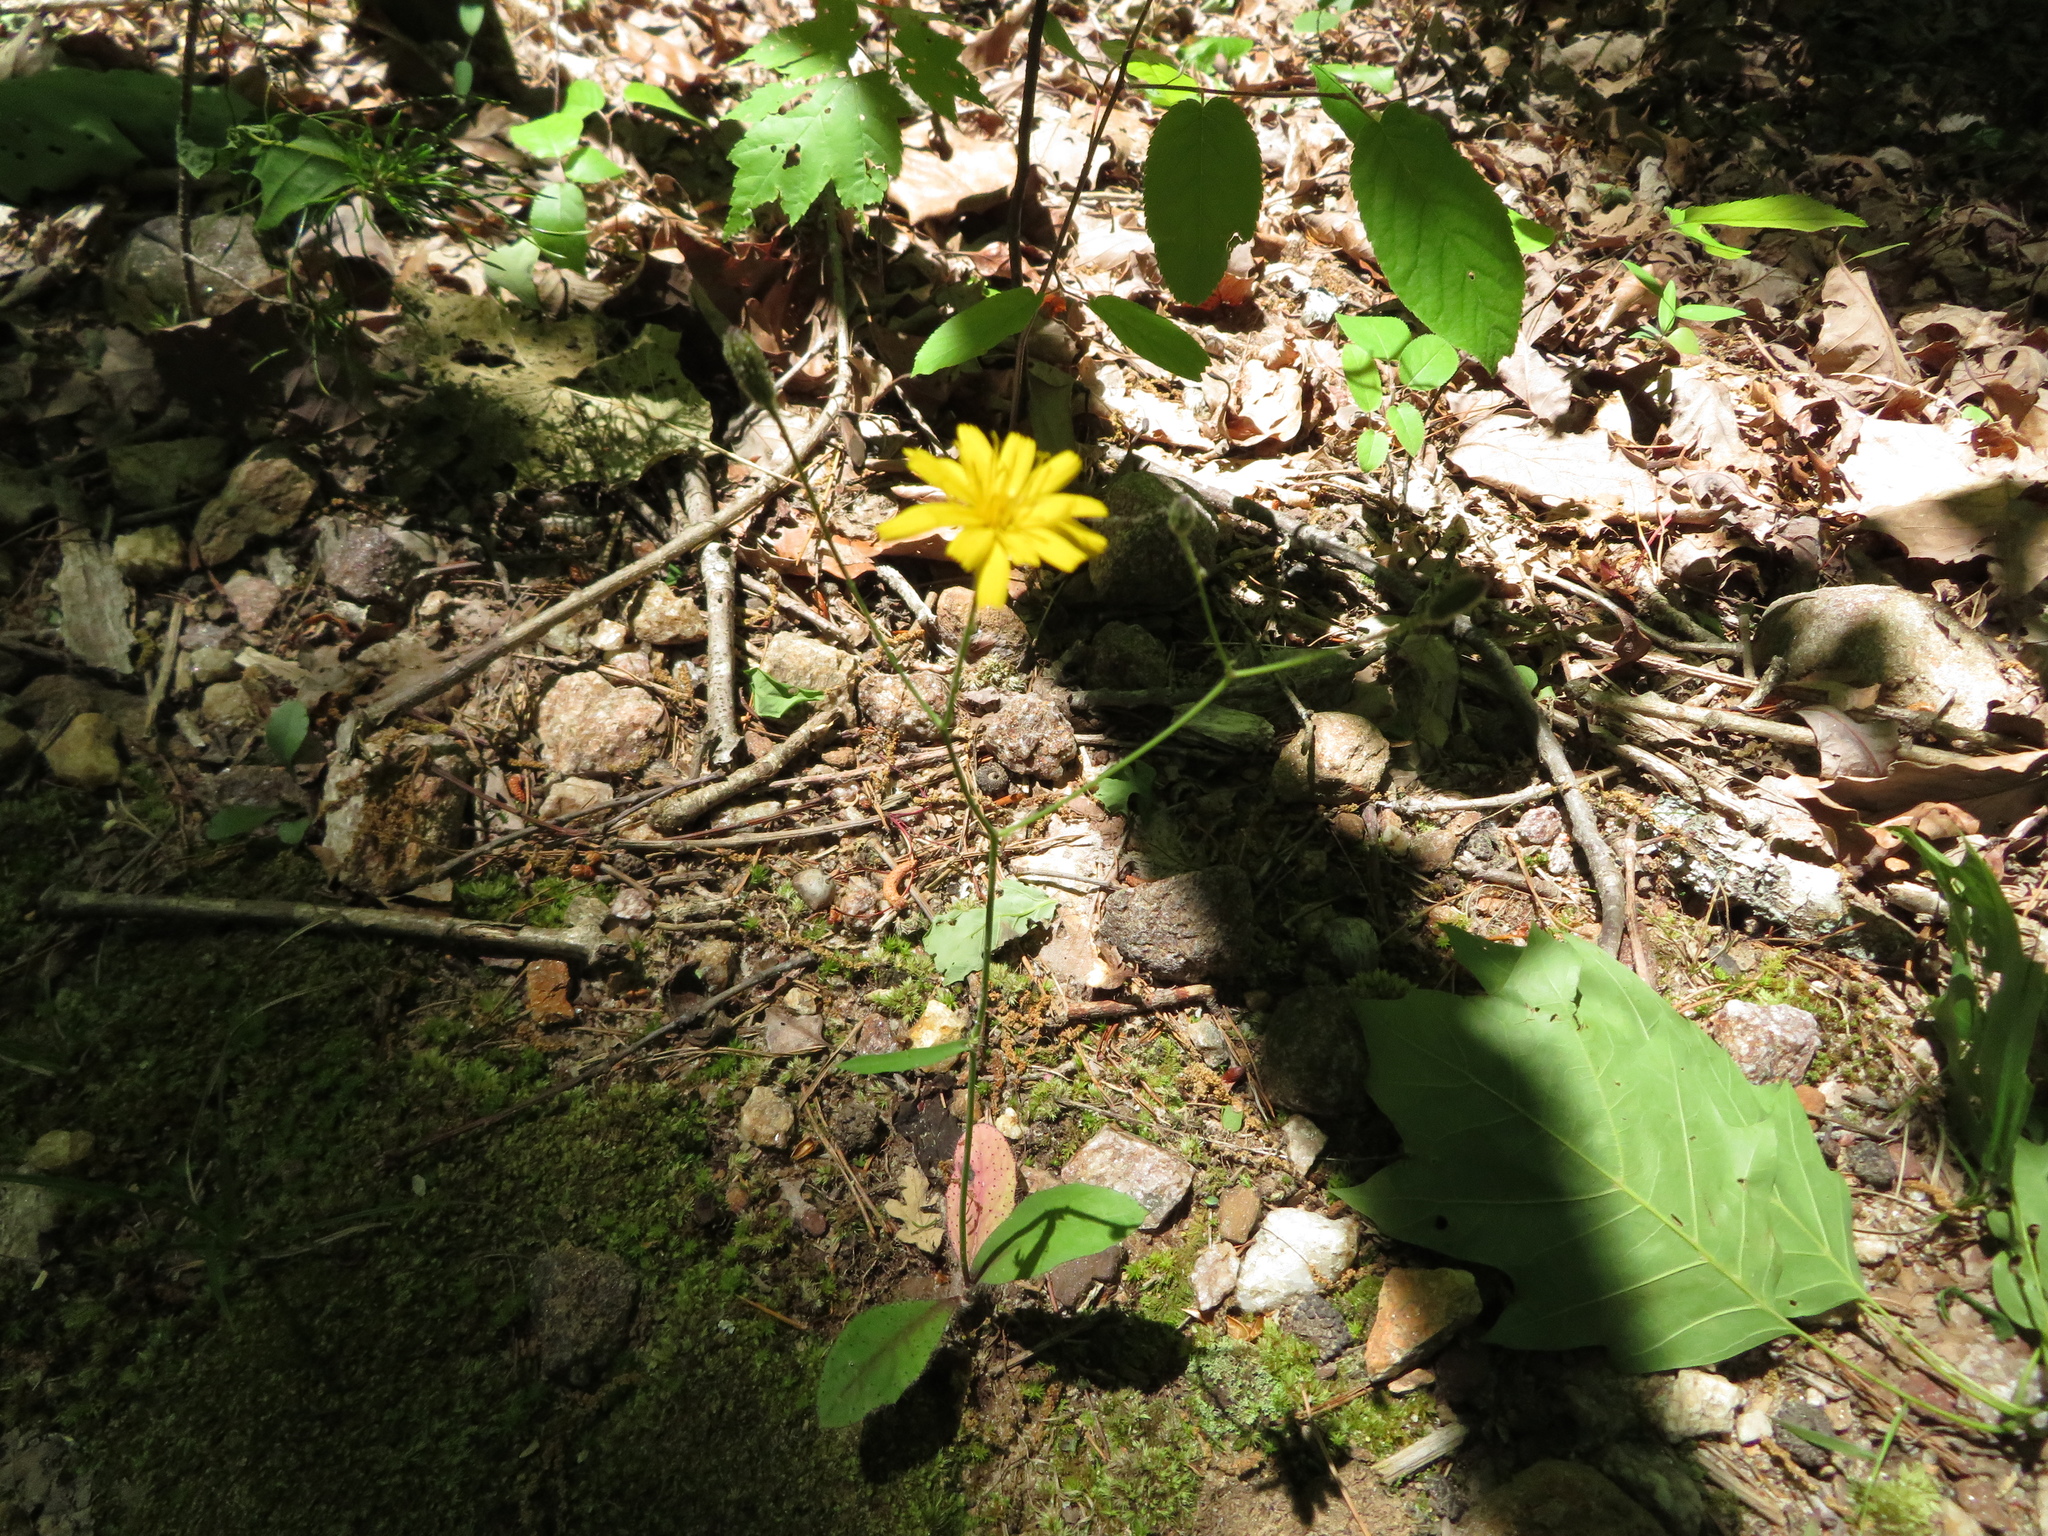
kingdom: Plantae
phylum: Tracheophyta
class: Magnoliopsida
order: Asterales
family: Asteraceae
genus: Hieracium
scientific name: Hieracium venosum
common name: Rattlesnake hawkweed
